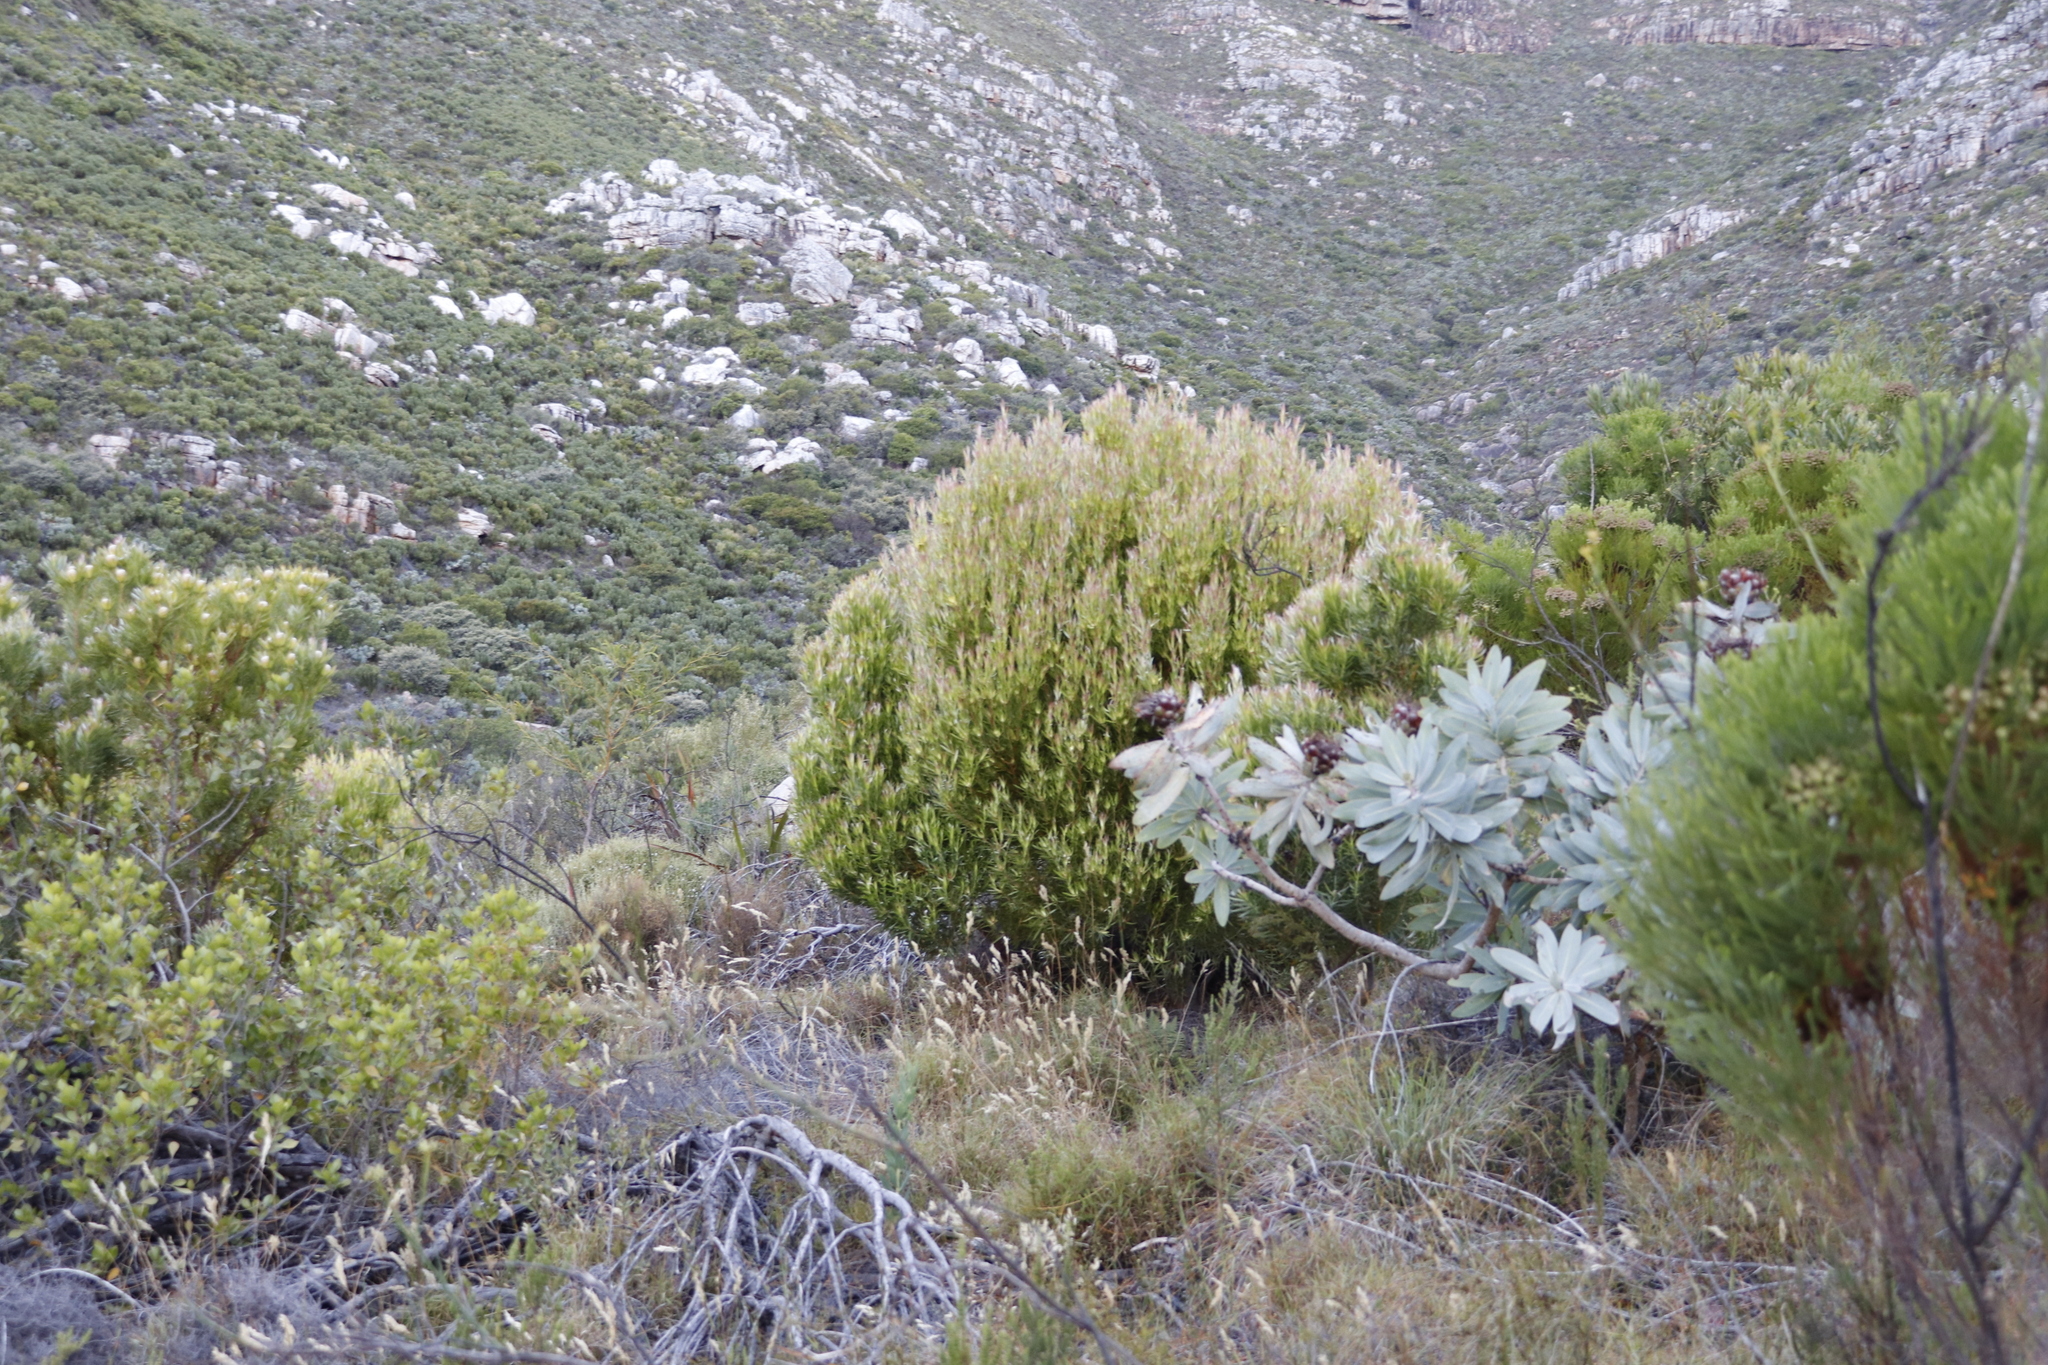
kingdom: Plantae
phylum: Tracheophyta
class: Magnoliopsida
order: Proteales
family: Proteaceae
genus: Leucadendron
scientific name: Leucadendron xanthoconus
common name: Sickle-leaf conebush
